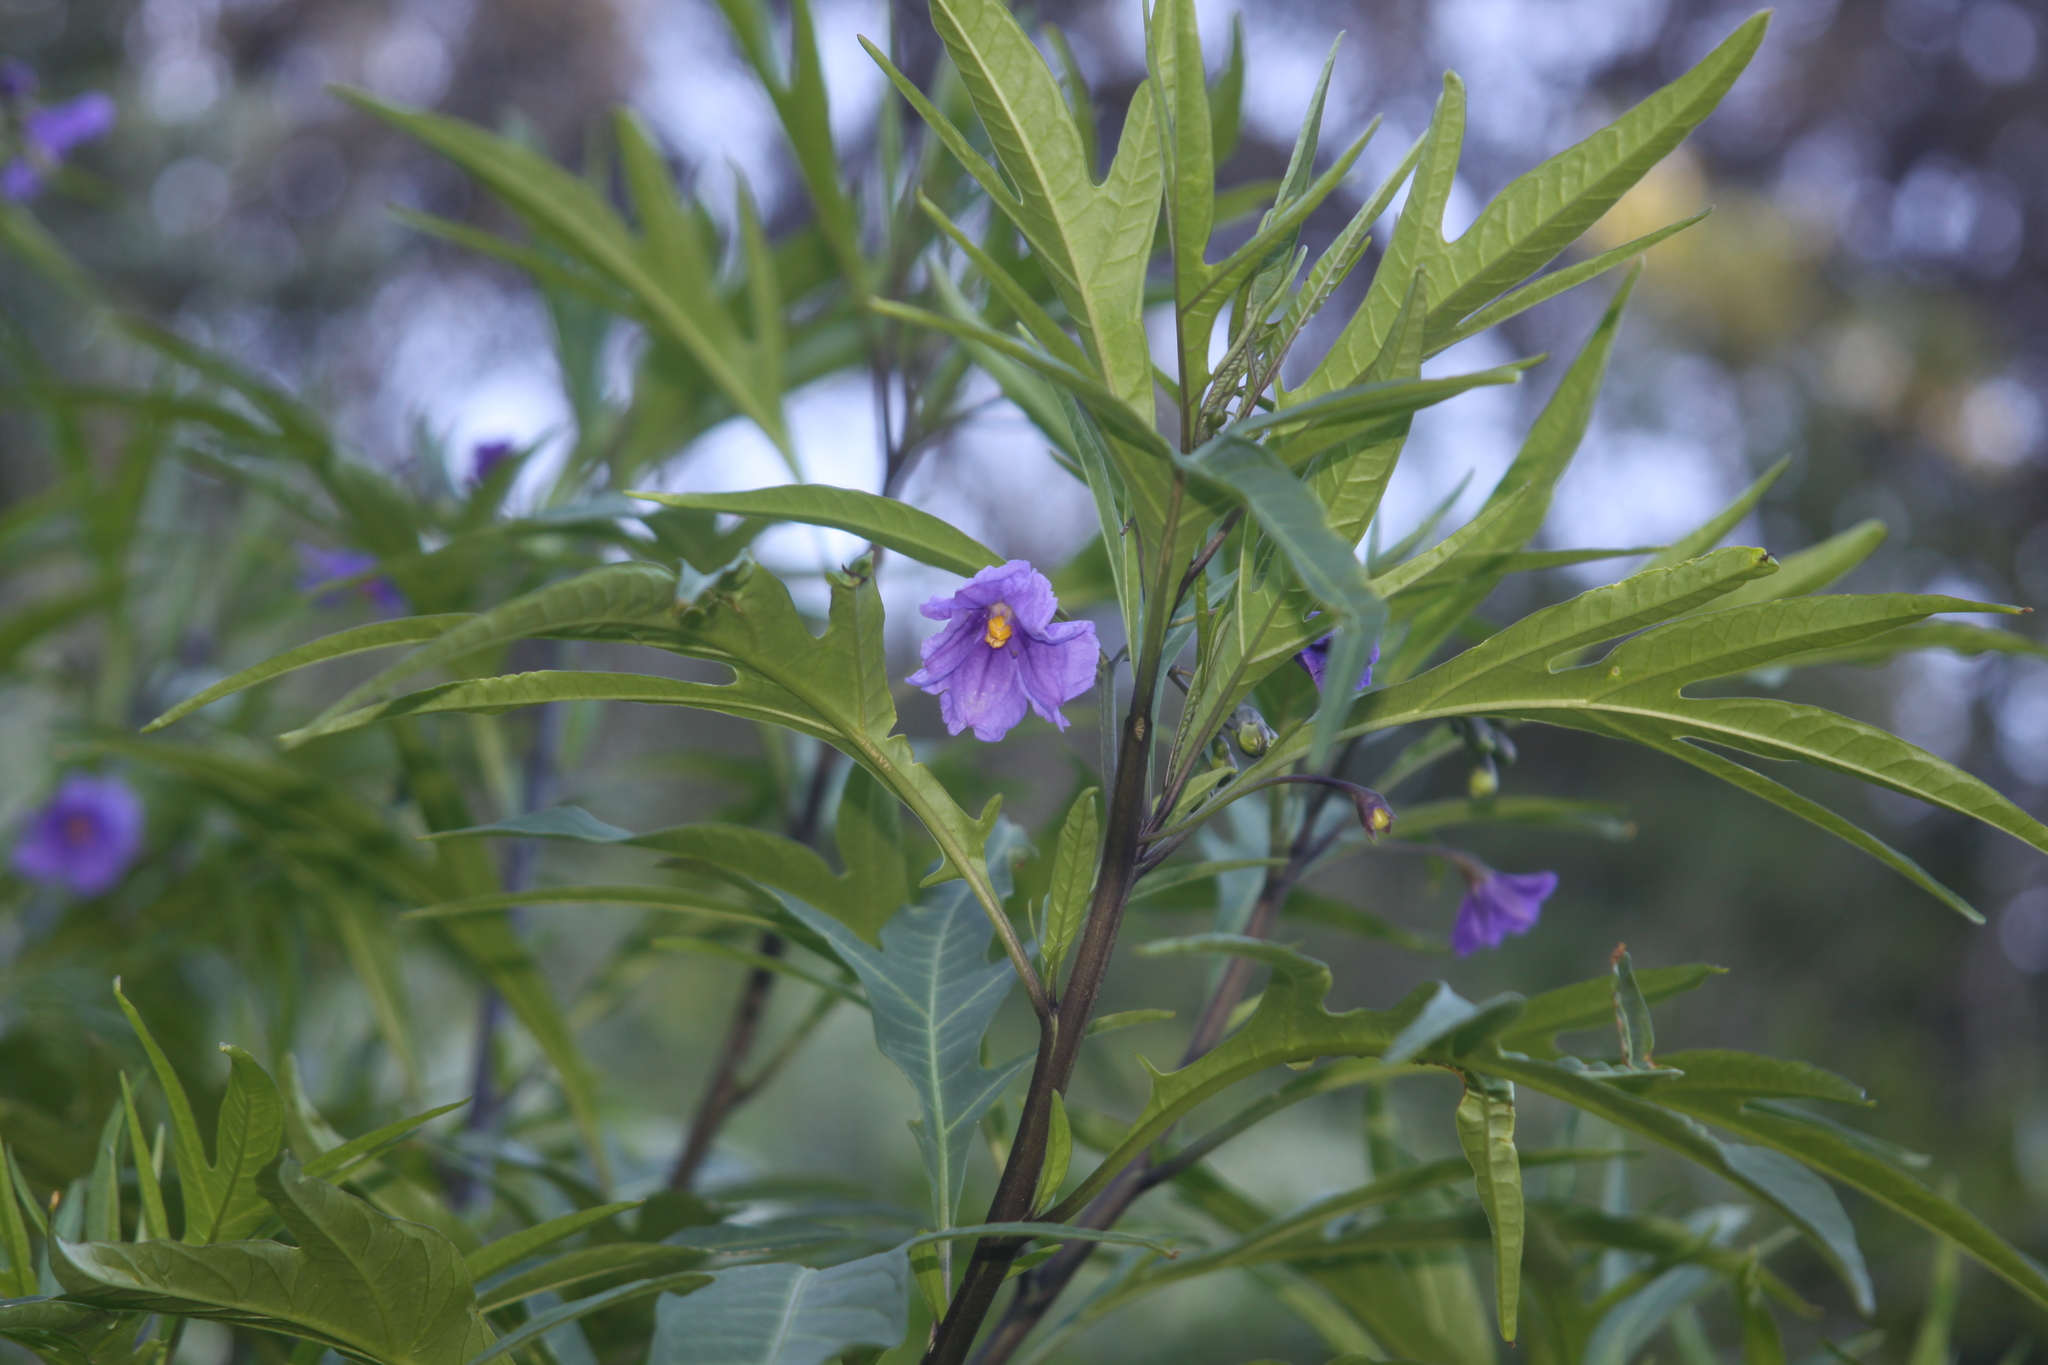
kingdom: Plantae
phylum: Tracheophyta
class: Magnoliopsida
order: Solanales
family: Solanaceae
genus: Solanum
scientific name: Solanum laciniatum
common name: Kangaroo-apple
